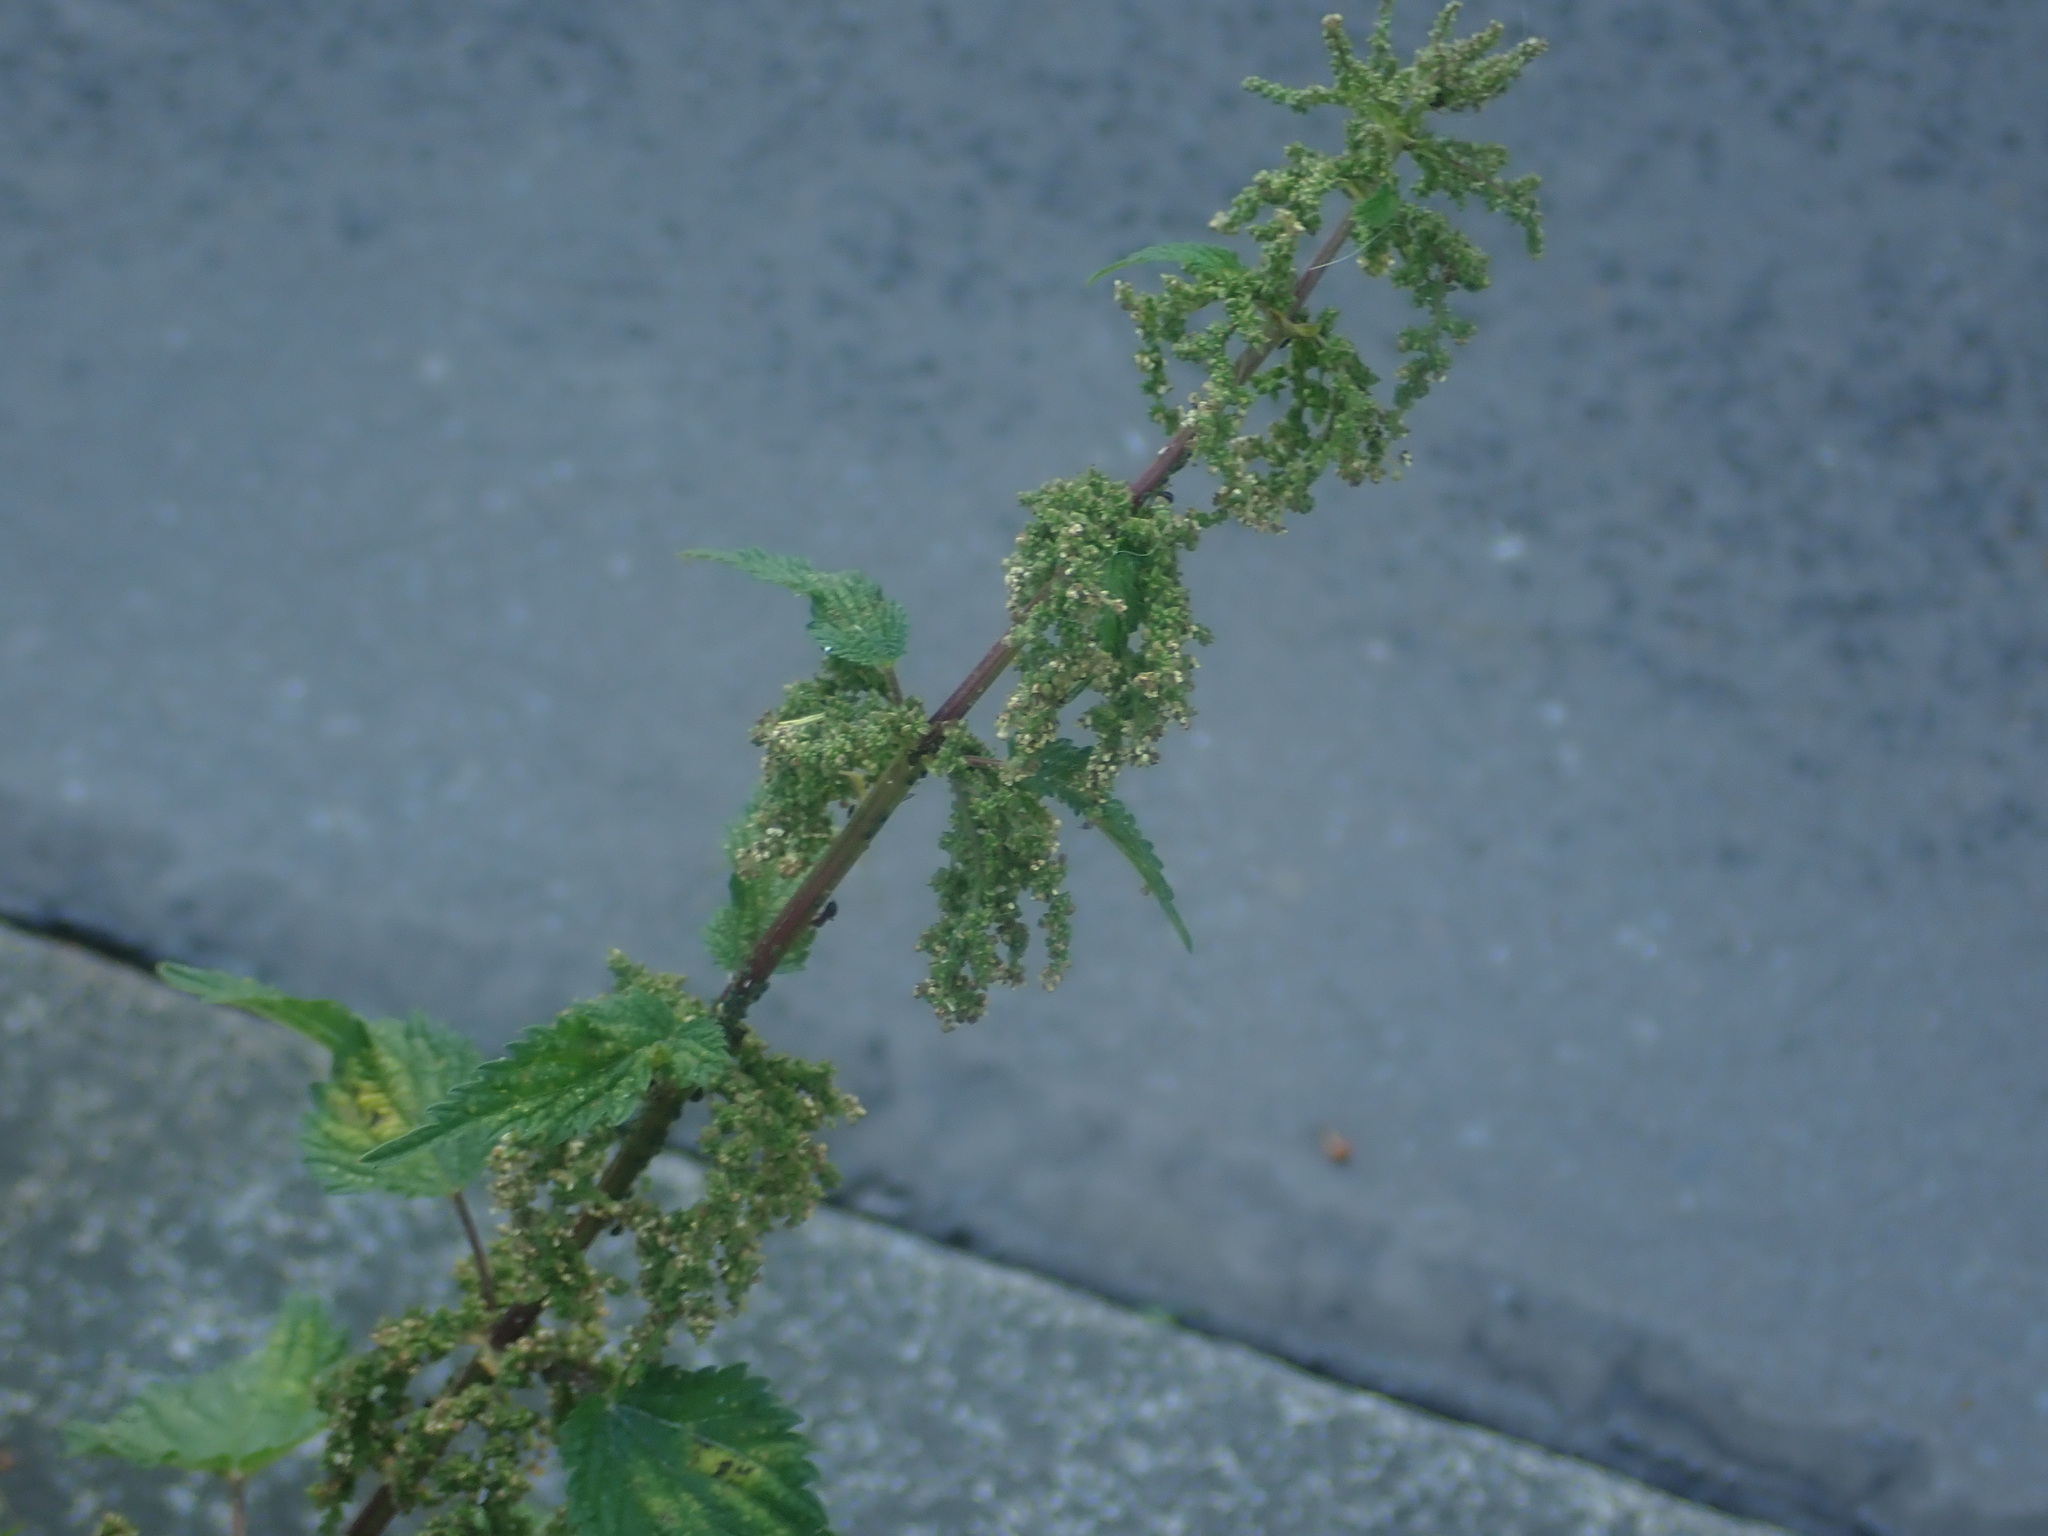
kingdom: Plantae
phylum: Tracheophyta
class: Magnoliopsida
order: Rosales
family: Urticaceae
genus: Urtica
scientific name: Urtica dioica
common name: Common nettle
